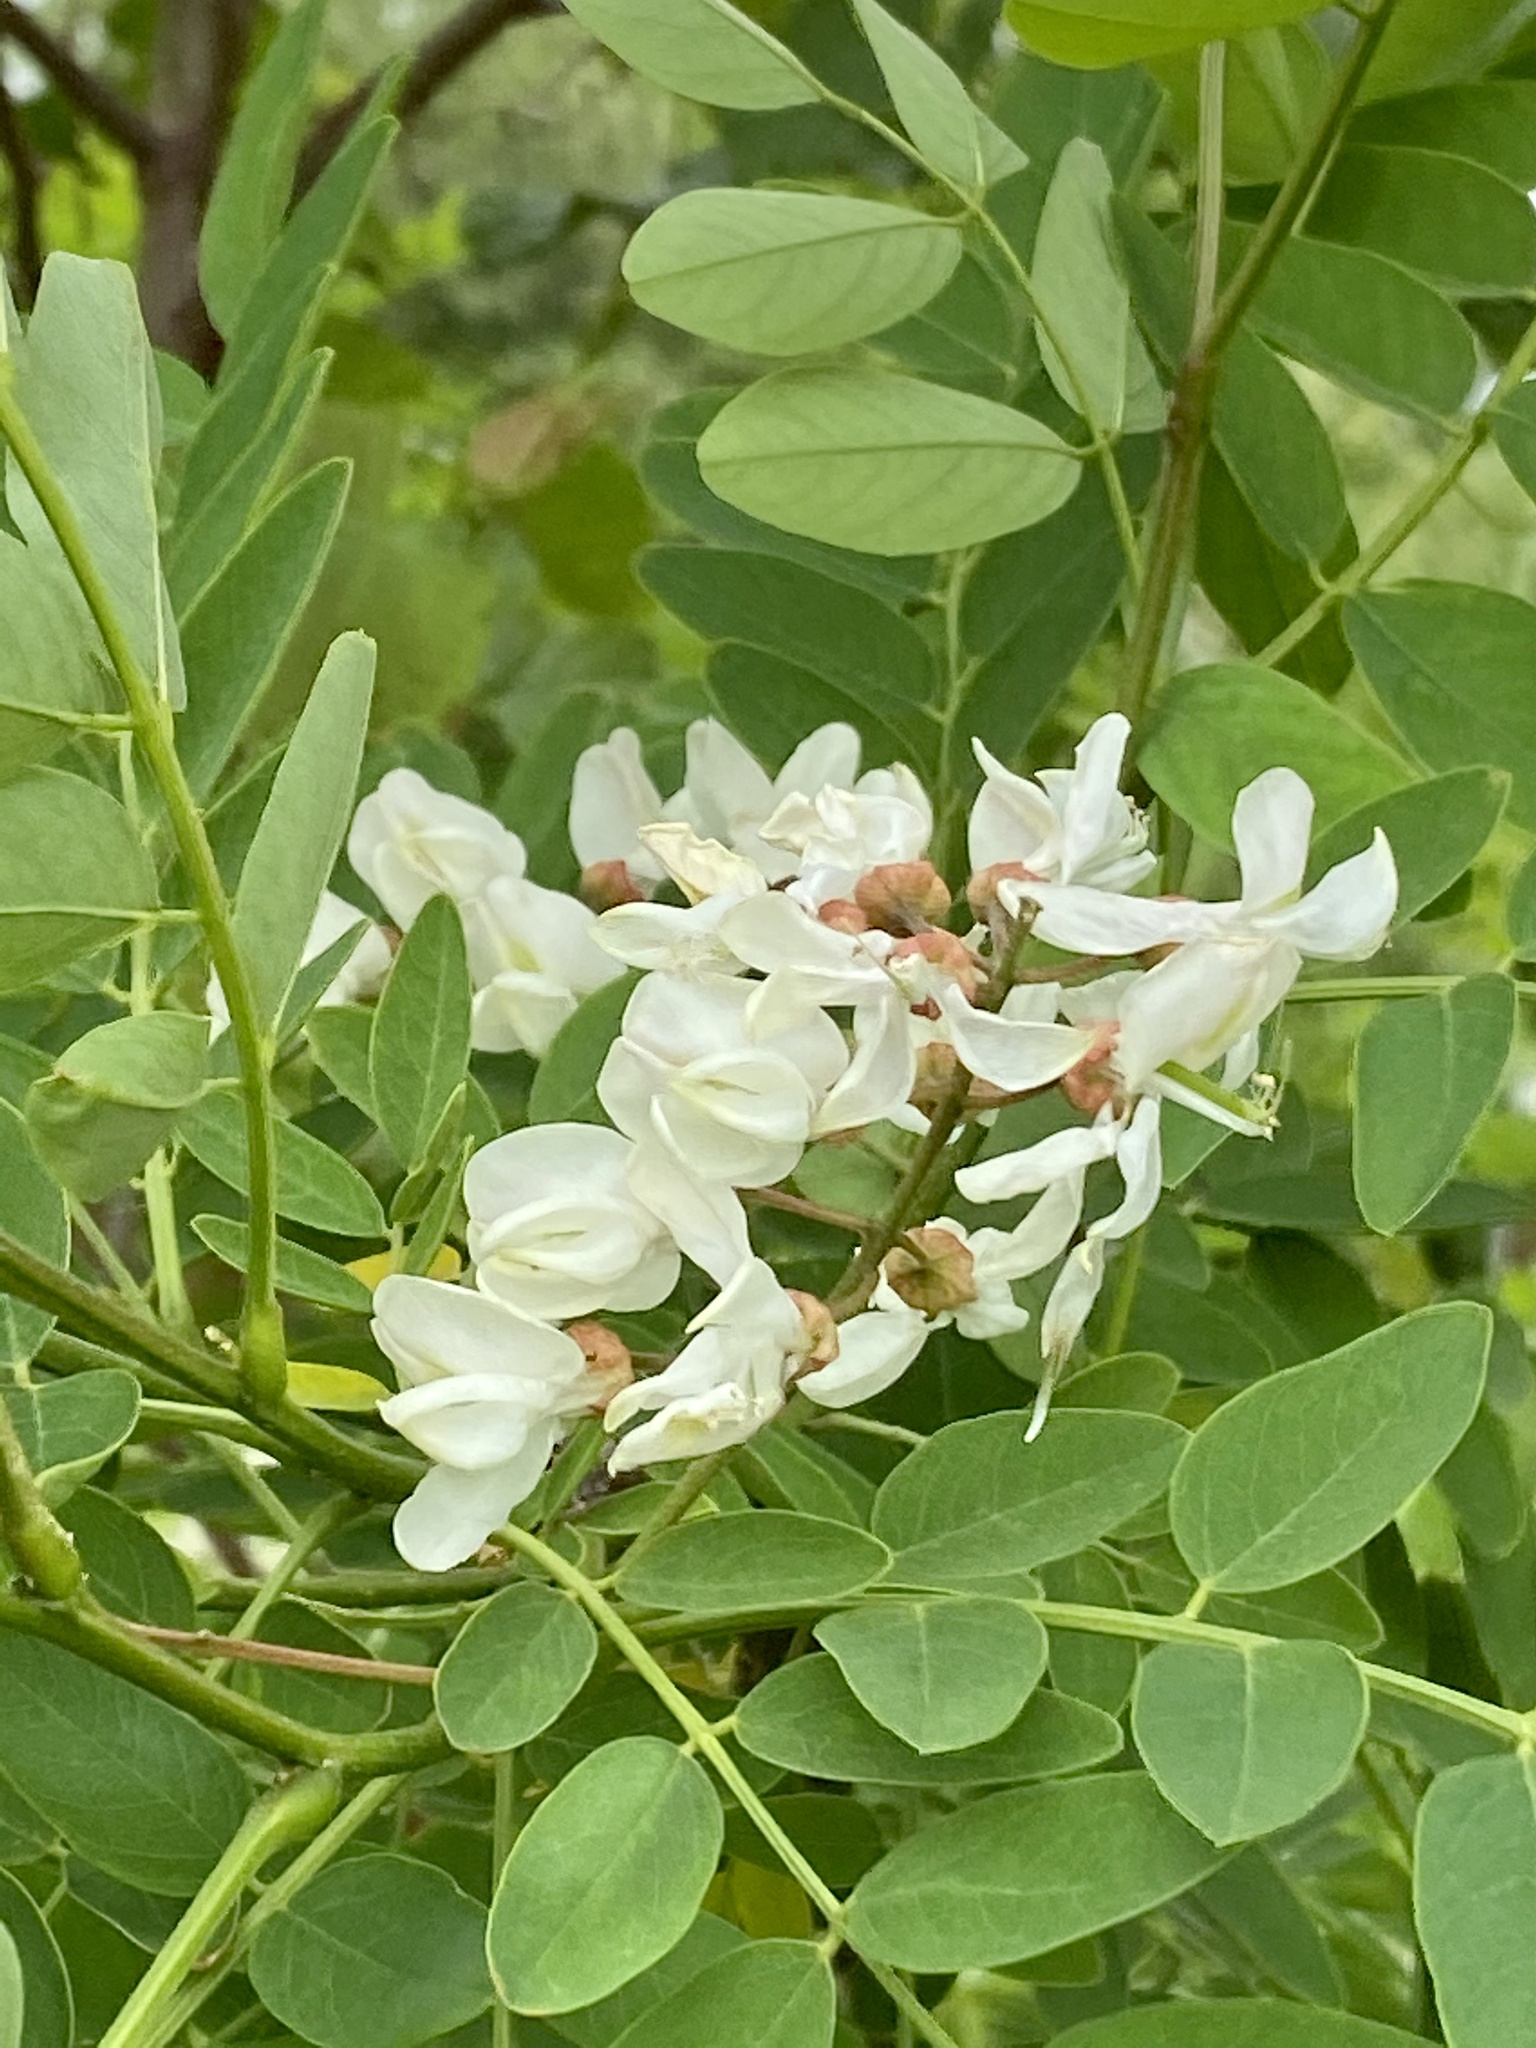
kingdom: Plantae
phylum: Tracheophyta
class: Magnoliopsida
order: Fabales
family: Fabaceae
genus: Robinia
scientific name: Robinia pseudoacacia
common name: Black locust
